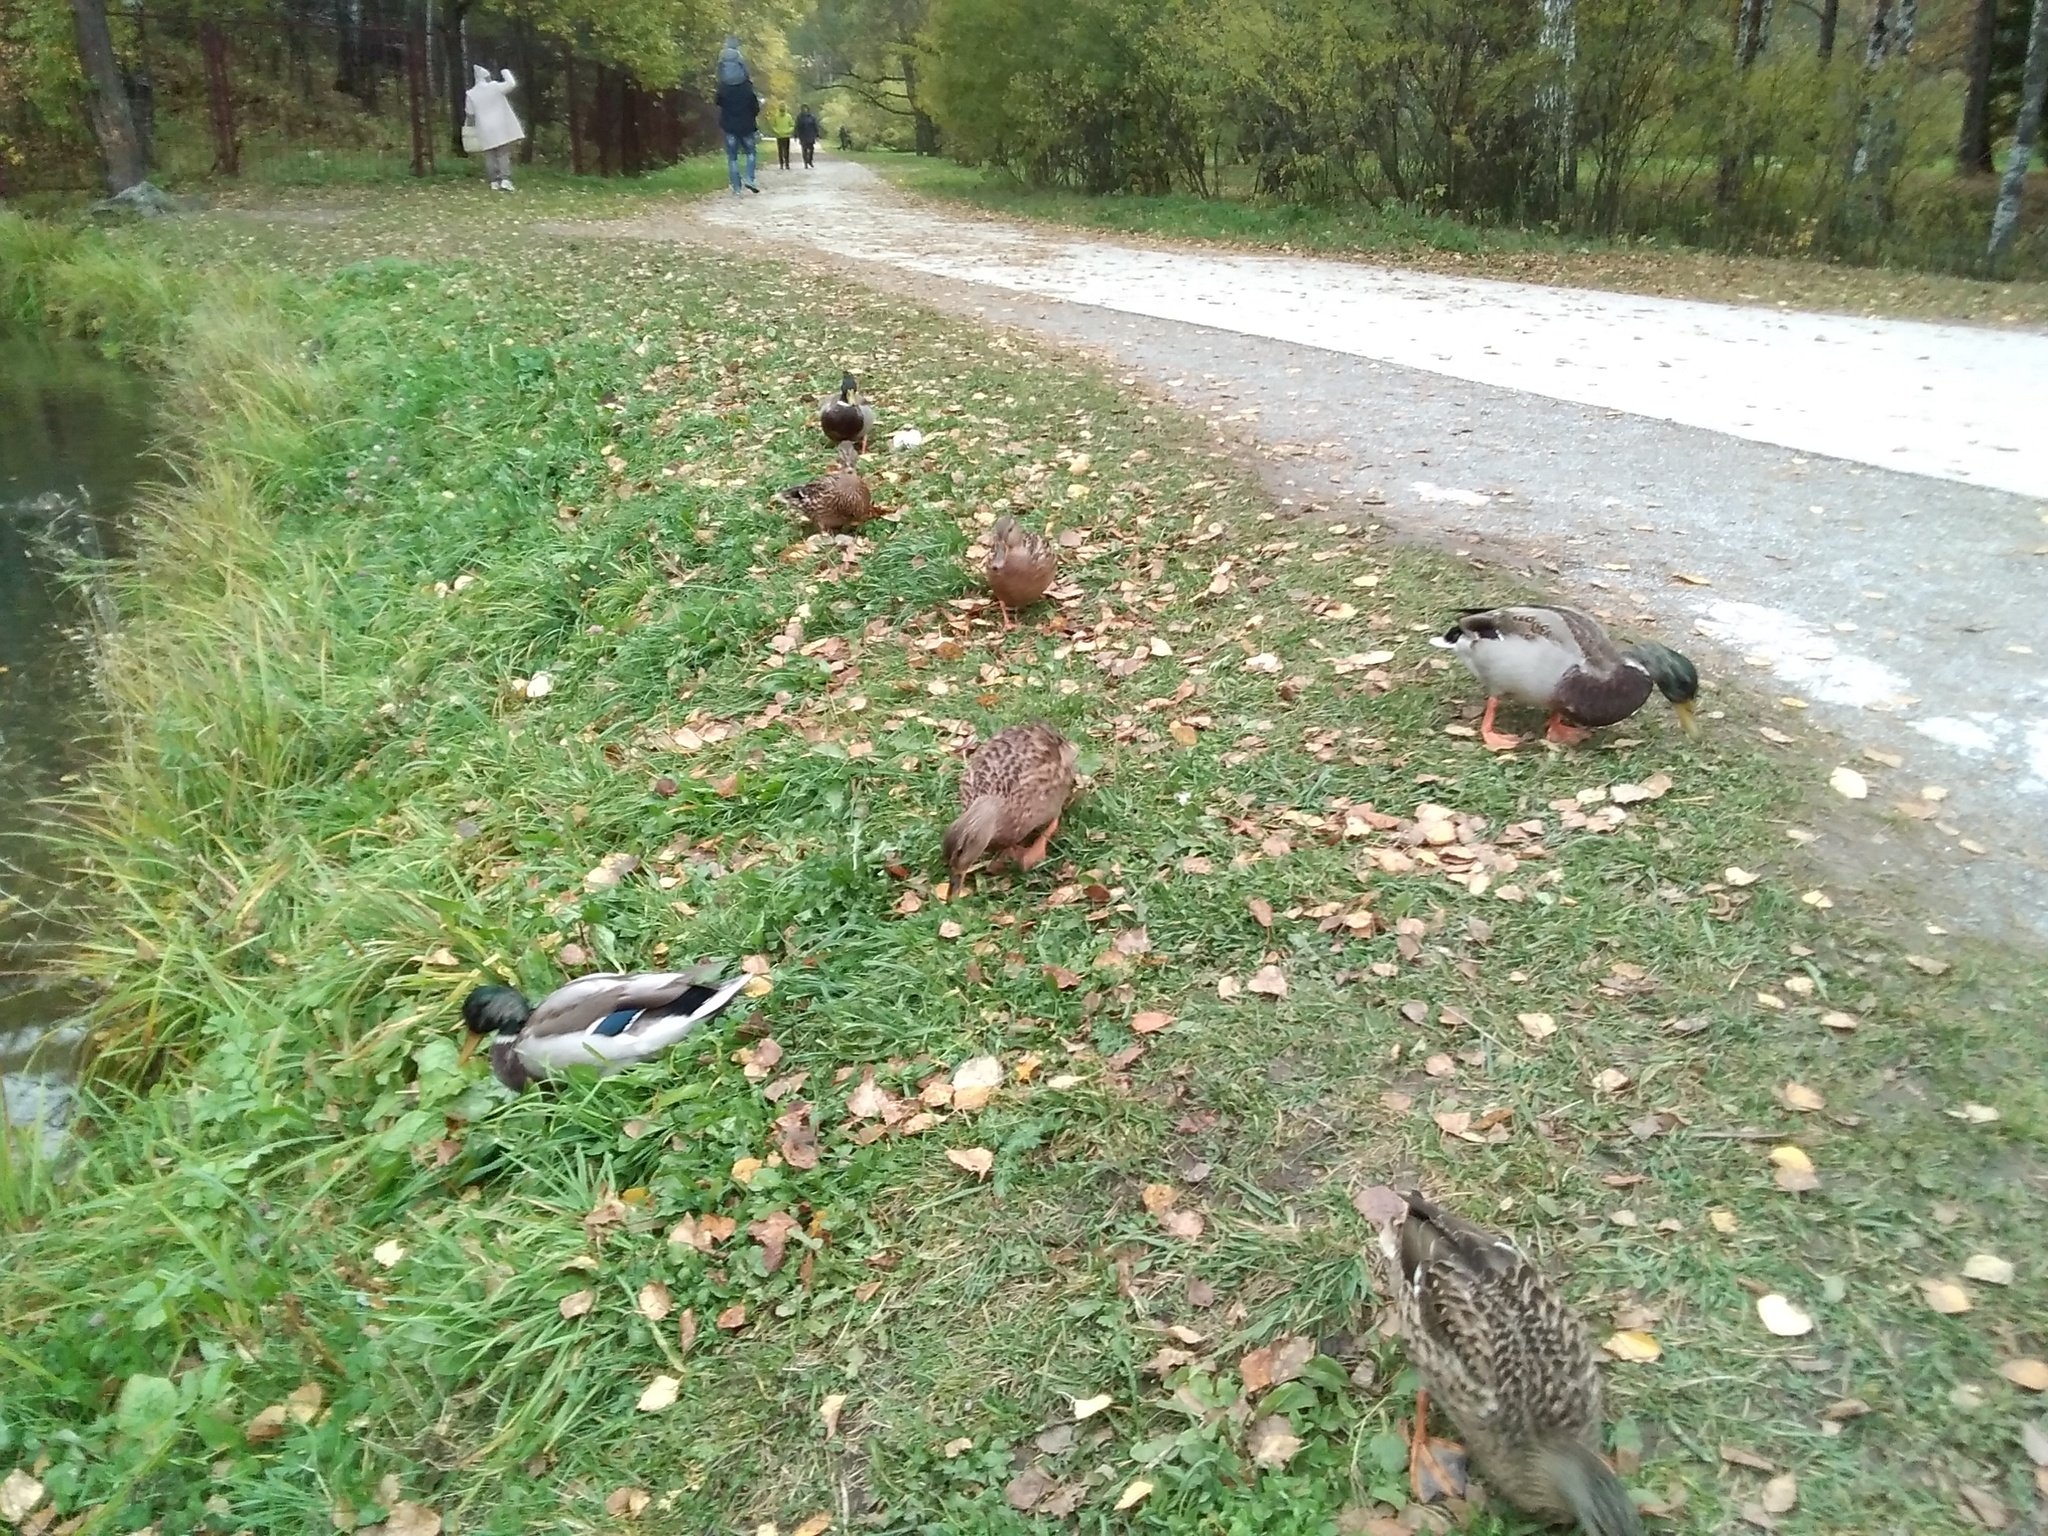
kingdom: Animalia
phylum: Chordata
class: Aves
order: Anseriformes
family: Anatidae
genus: Anas
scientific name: Anas platyrhynchos
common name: Mallard
